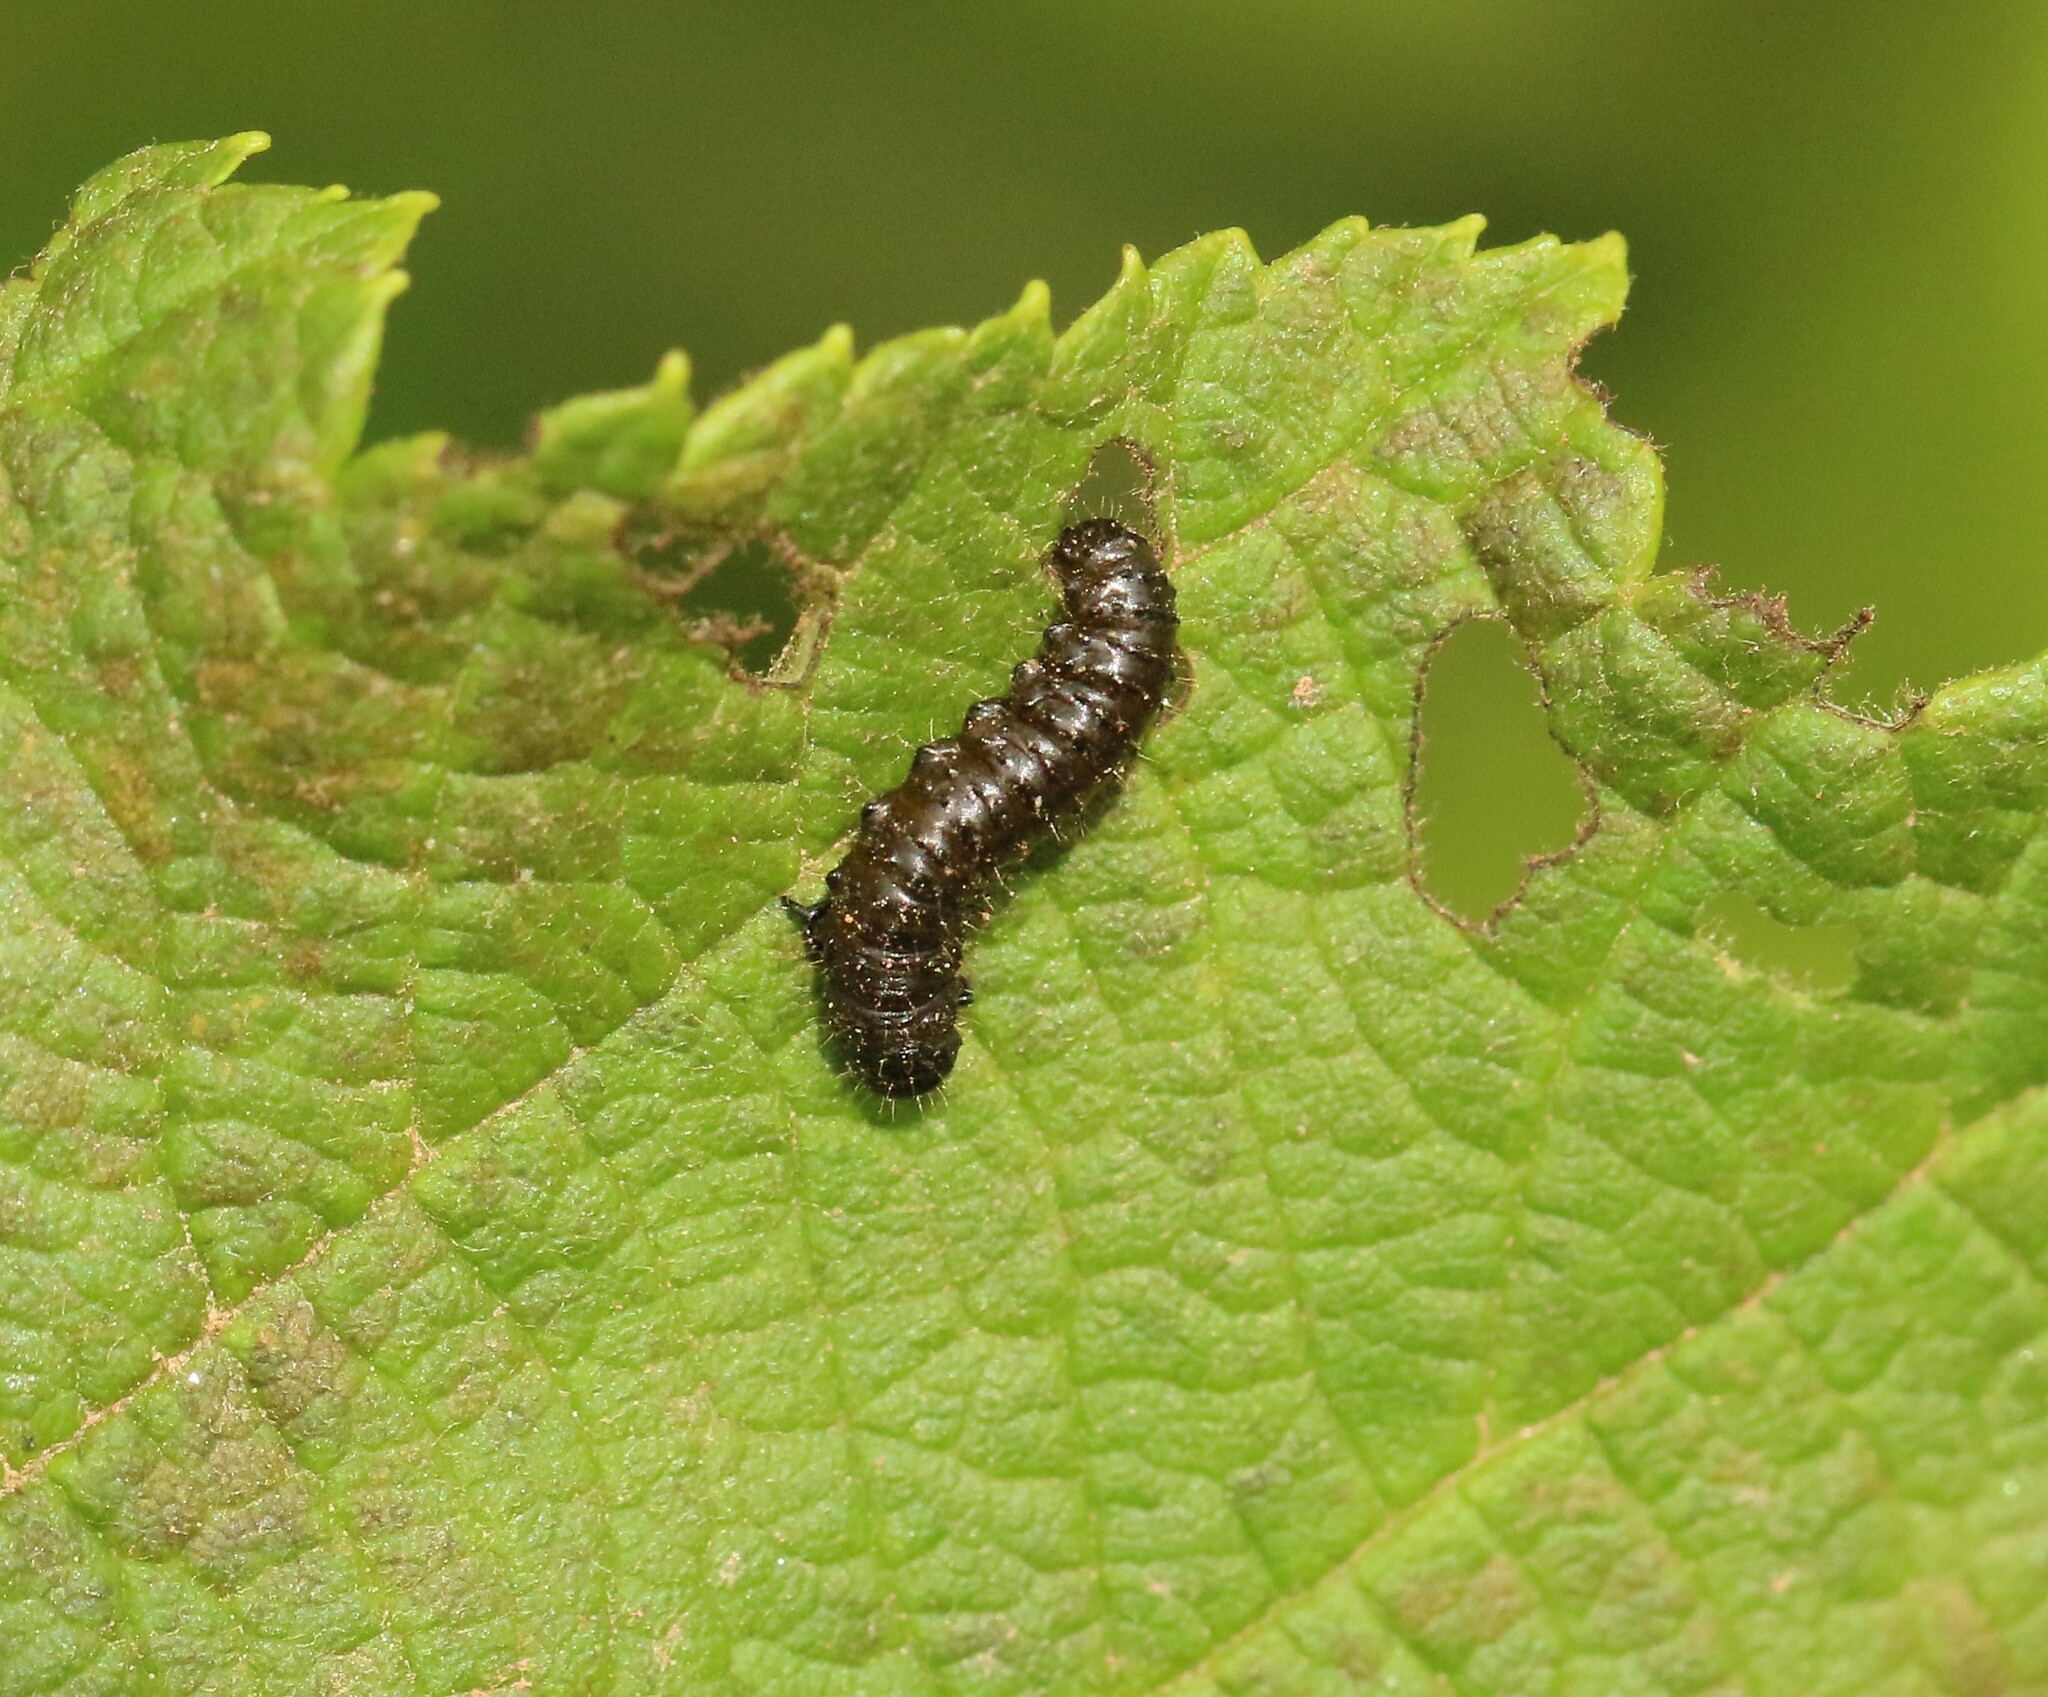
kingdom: Animalia
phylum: Arthropoda
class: Insecta
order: Coleoptera
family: Chrysomelidae
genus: Altica
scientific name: Altica ambiens
